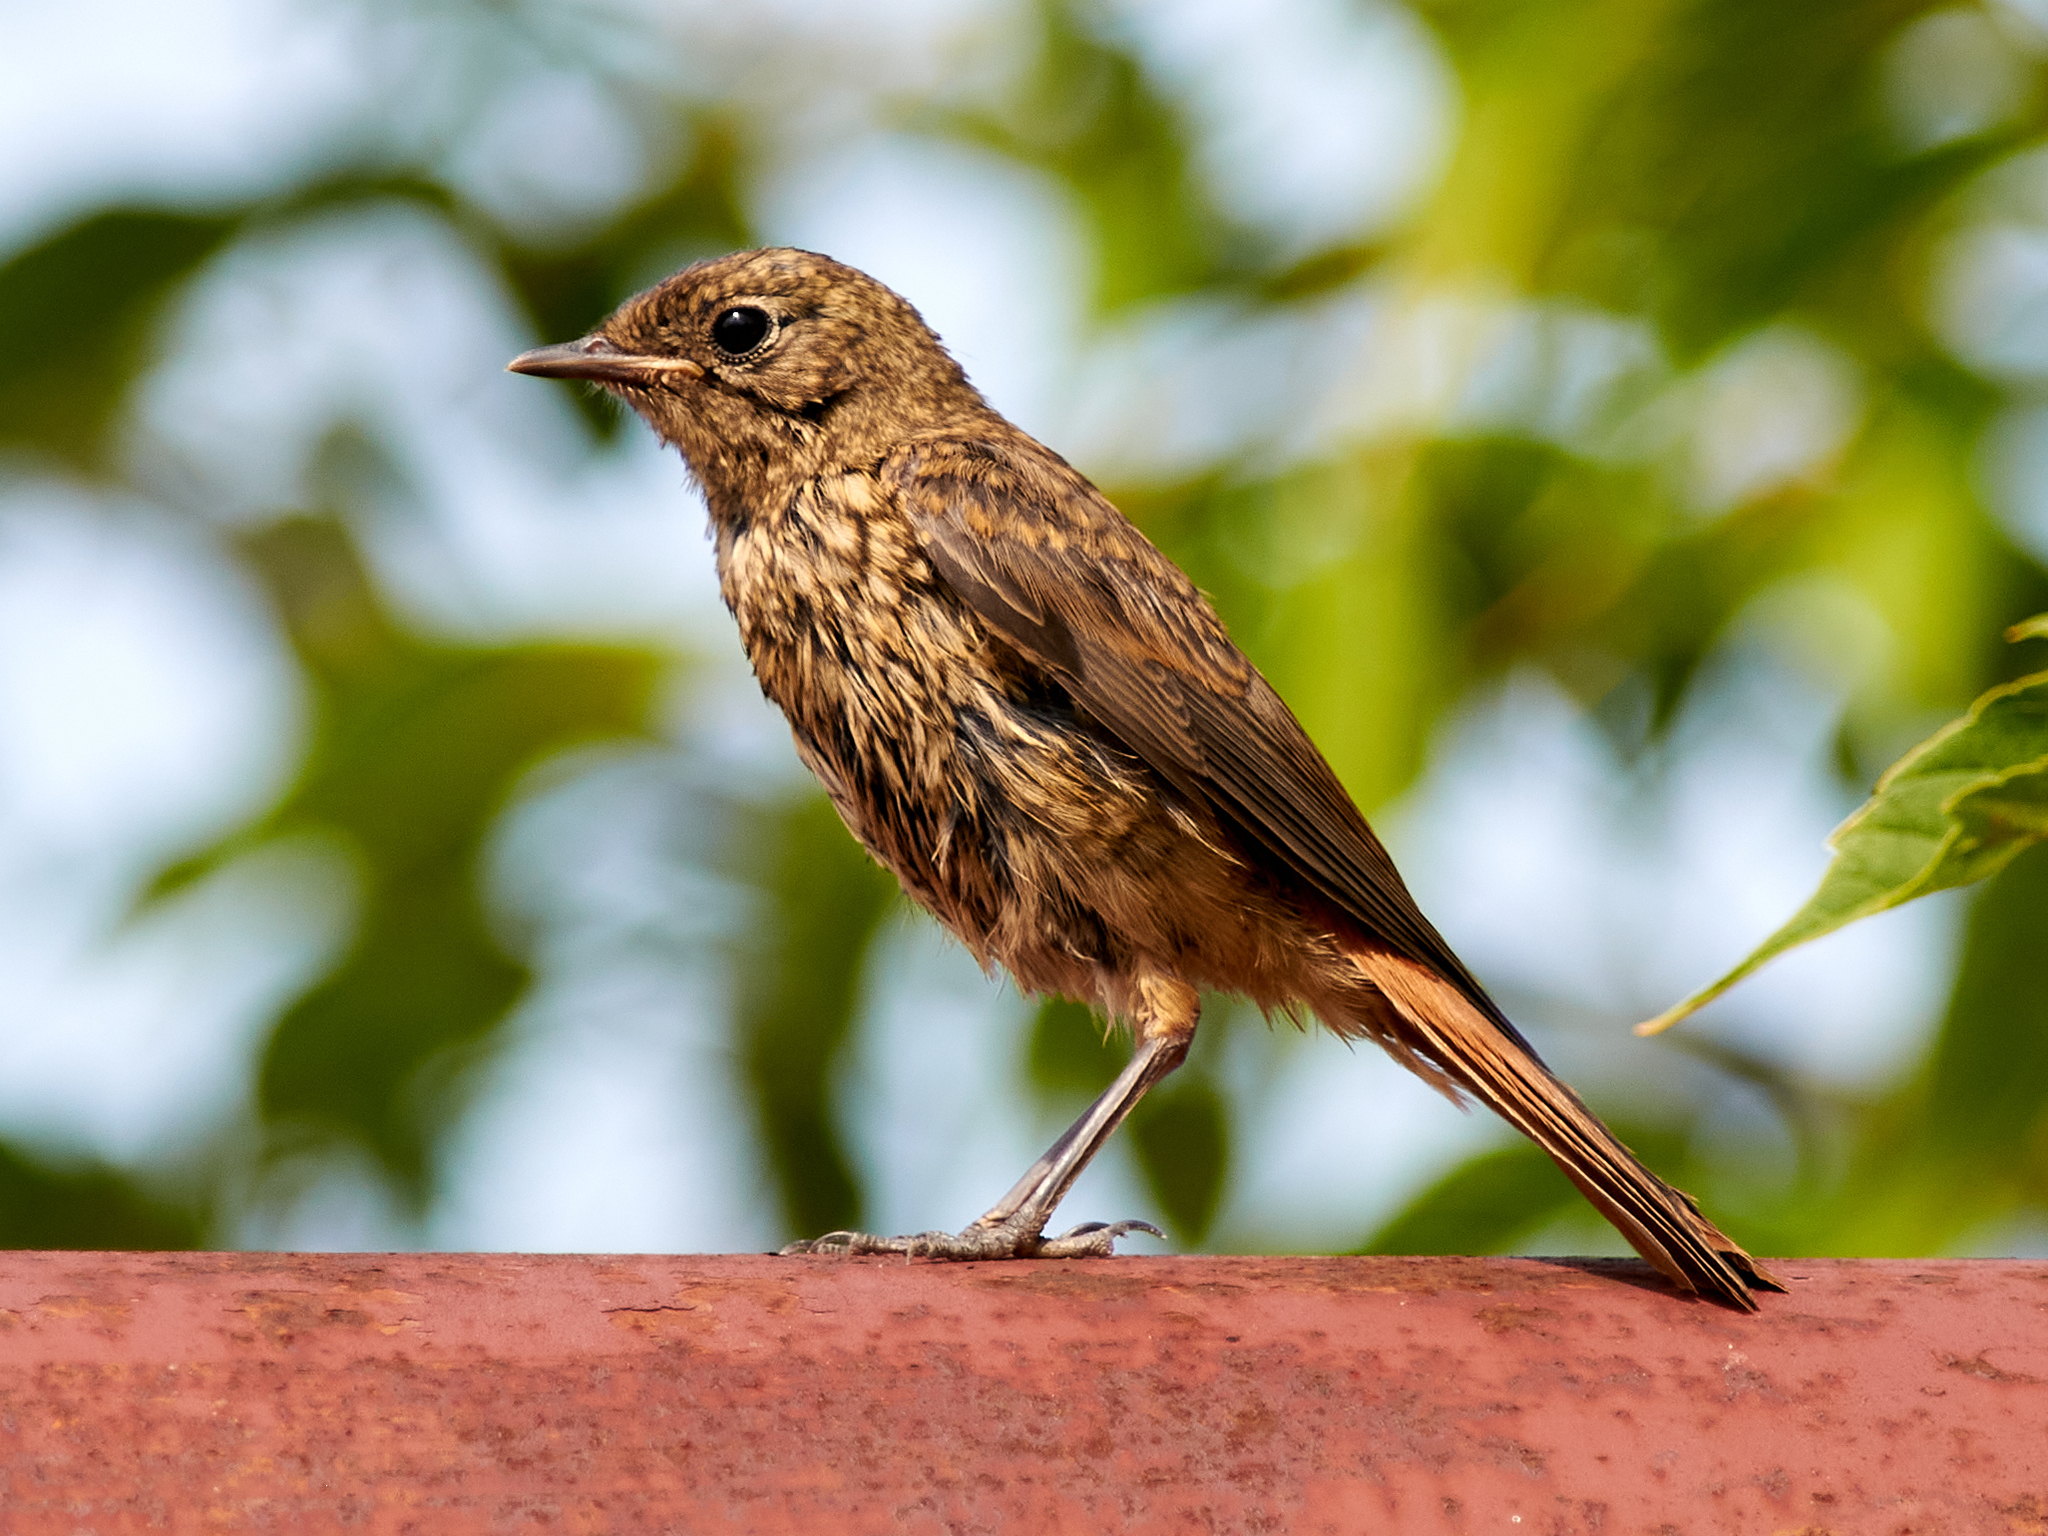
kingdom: Animalia
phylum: Chordata
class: Aves
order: Passeriformes
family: Muscicapidae
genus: Phoenicurus
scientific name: Phoenicurus phoenicurus
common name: Common redstart
